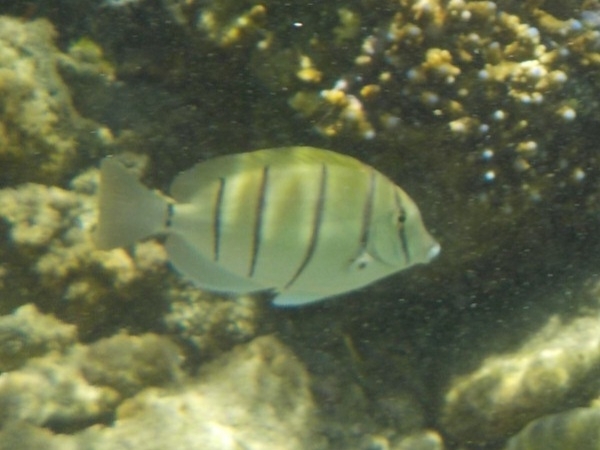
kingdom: Animalia
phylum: Chordata
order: Perciformes
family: Acanthuridae
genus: Acanthurus
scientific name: Acanthurus triostegus
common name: Convict surgeonfish
